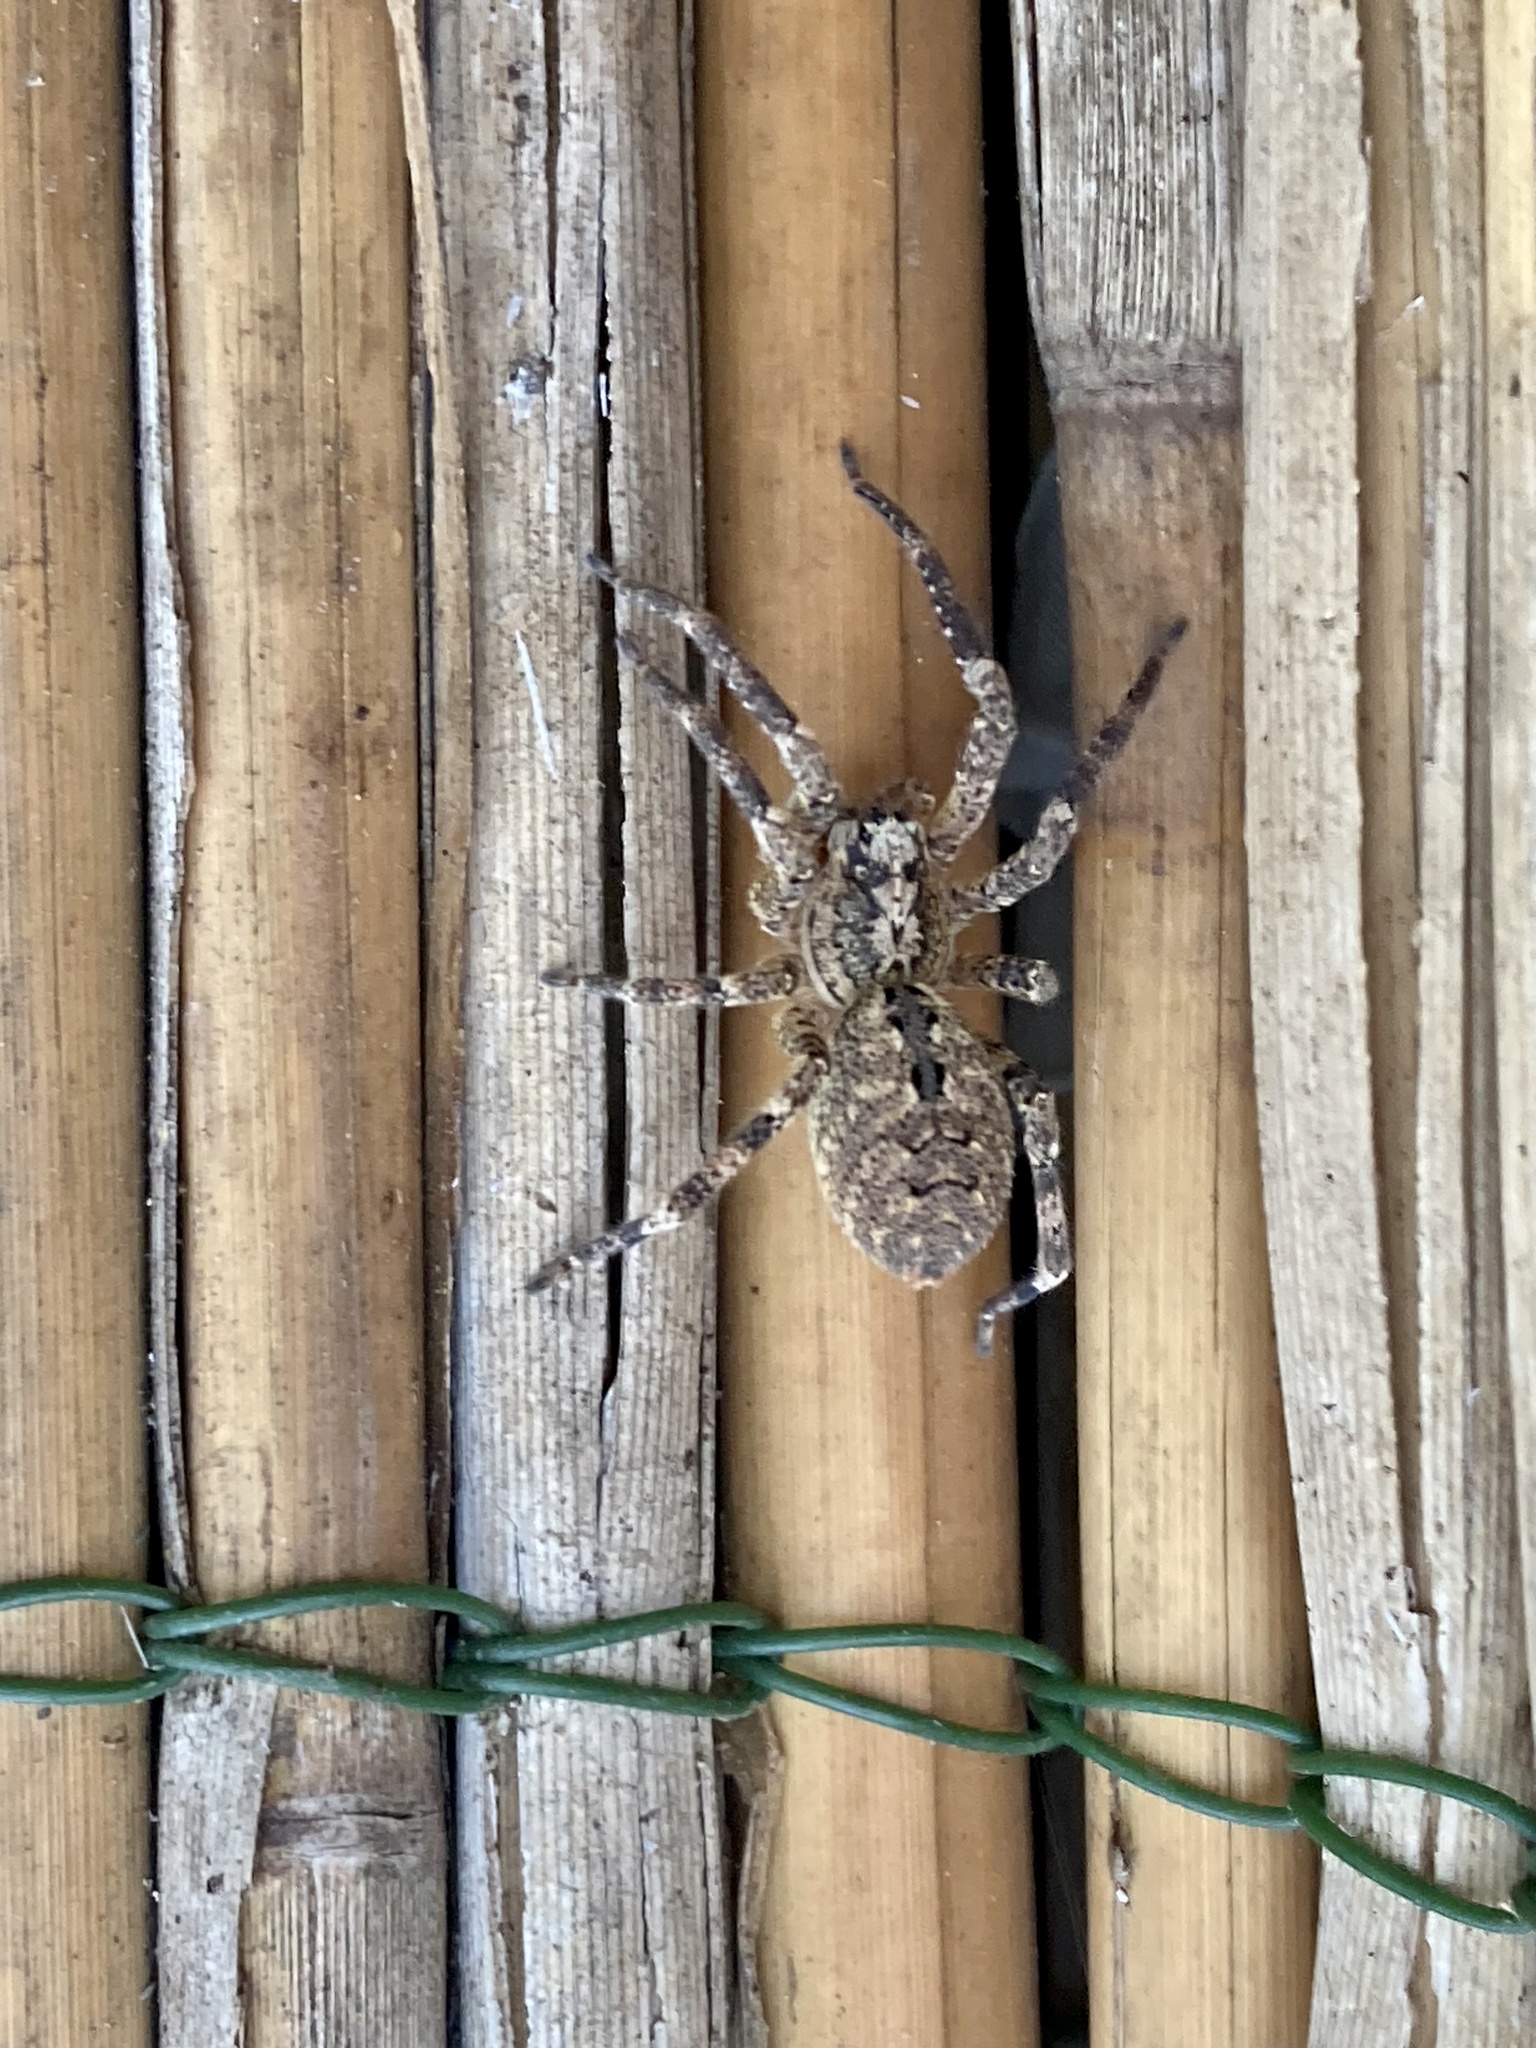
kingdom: Animalia
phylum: Arthropoda
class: Arachnida
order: Araneae
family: Zoropsidae
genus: Zoropsis
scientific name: Zoropsis spinimana
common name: Zoropsid spider
